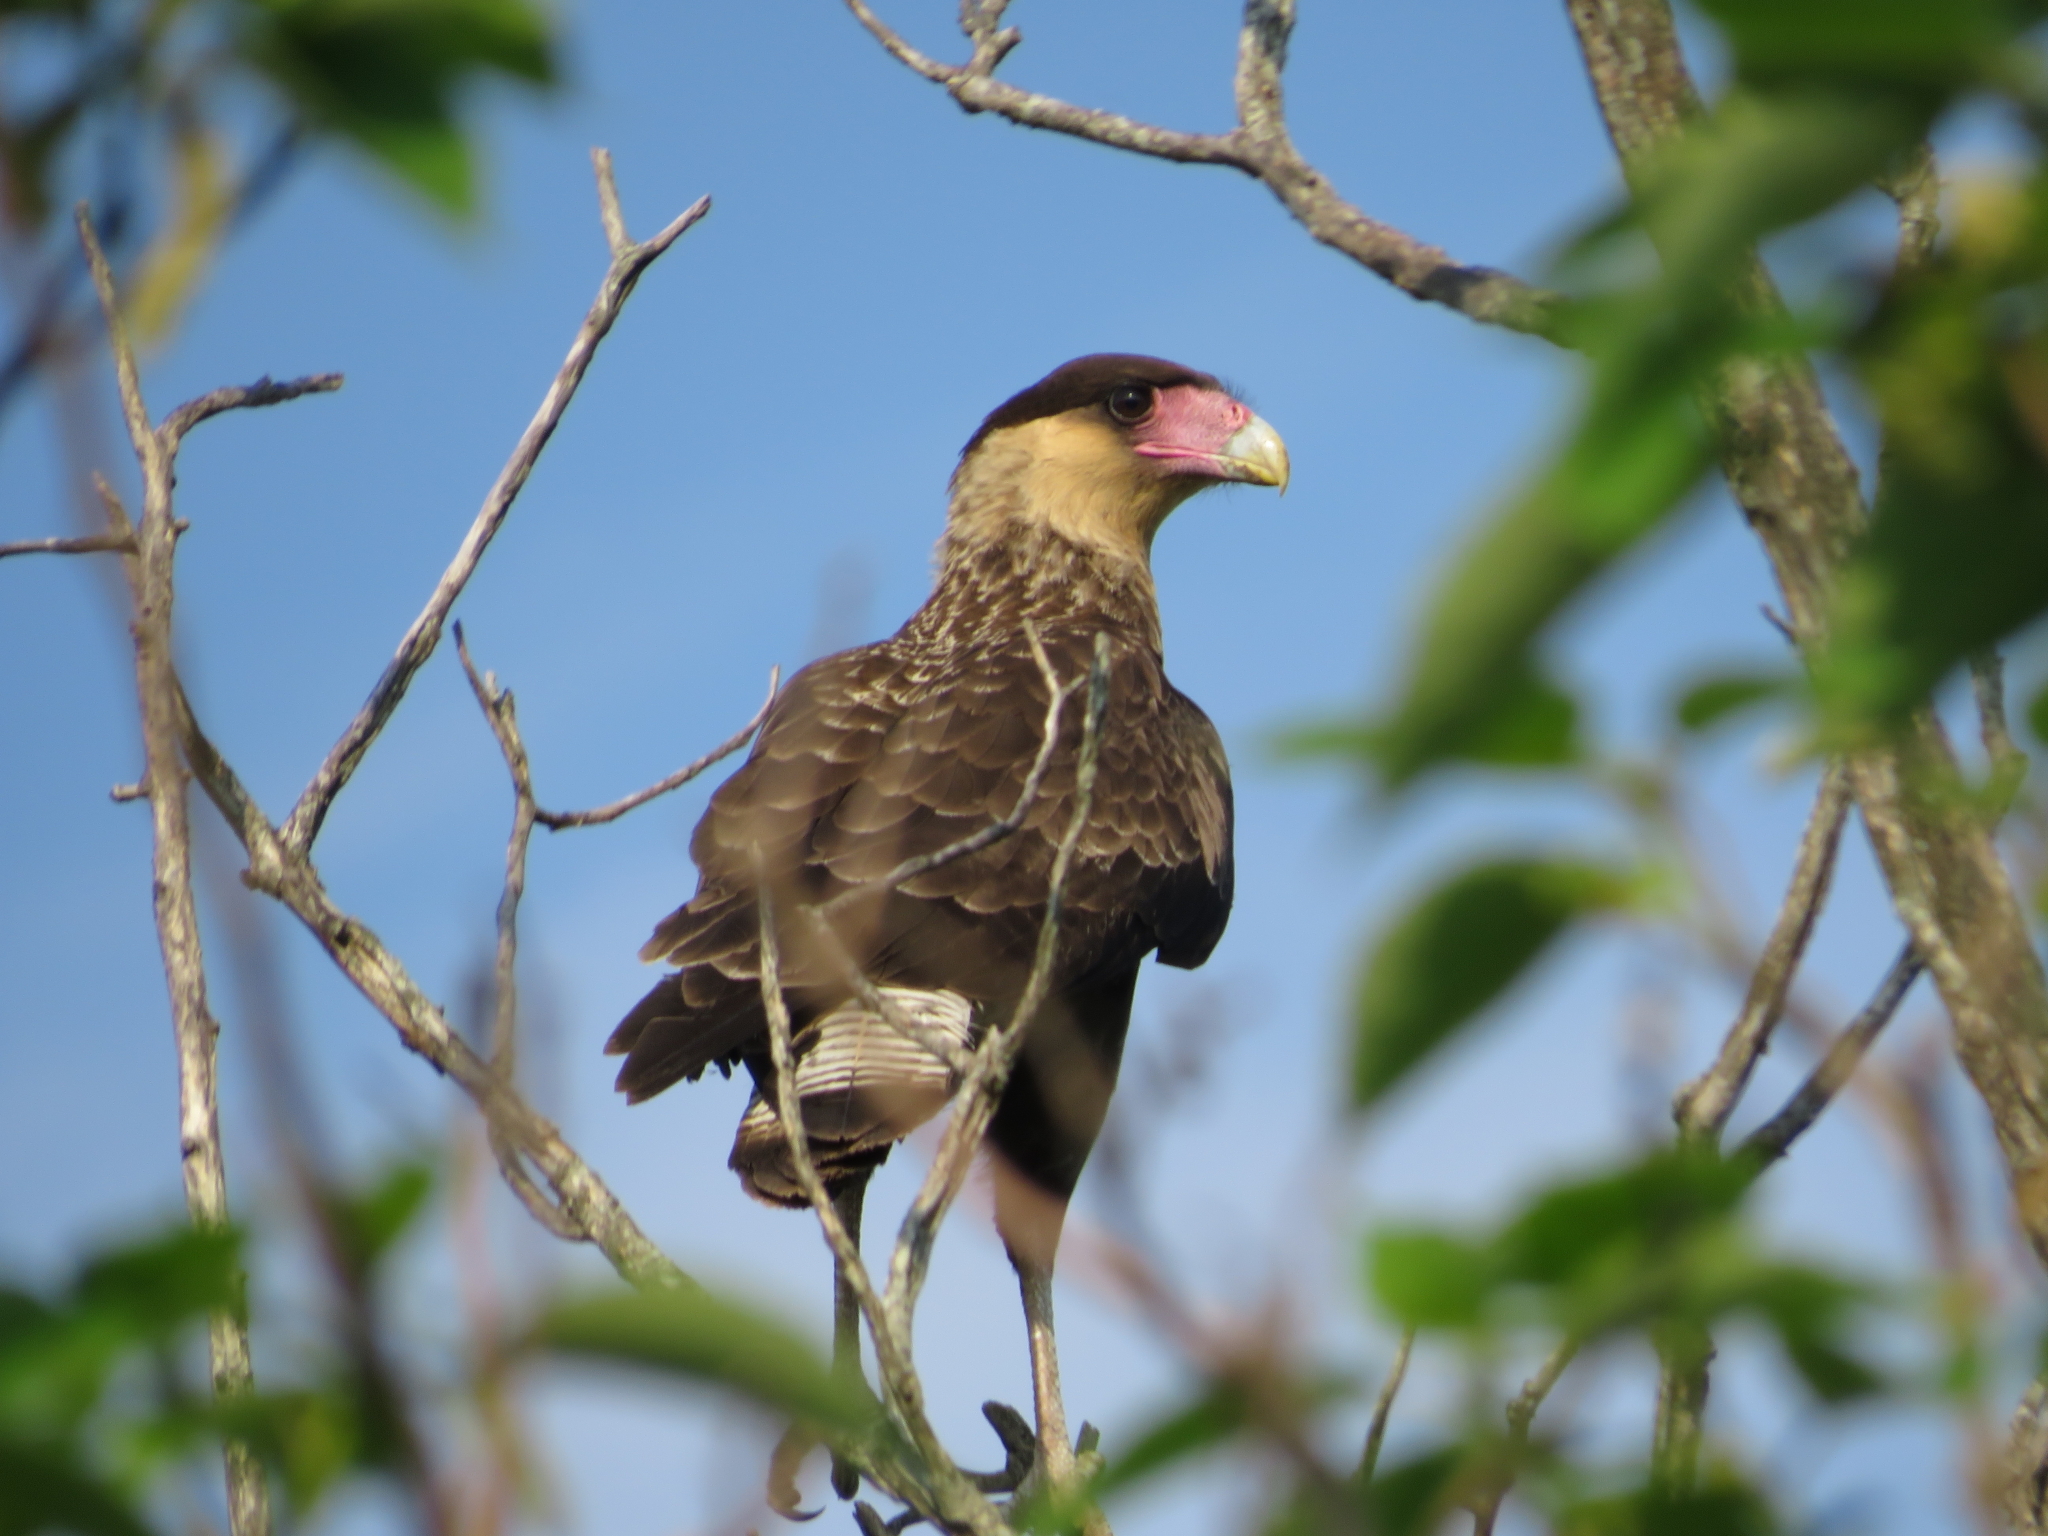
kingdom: Animalia
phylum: Chordata
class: Aves
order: Falconiformes
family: Falconidae
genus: Caracara
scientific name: Caracara plancus
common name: Southern caracara
